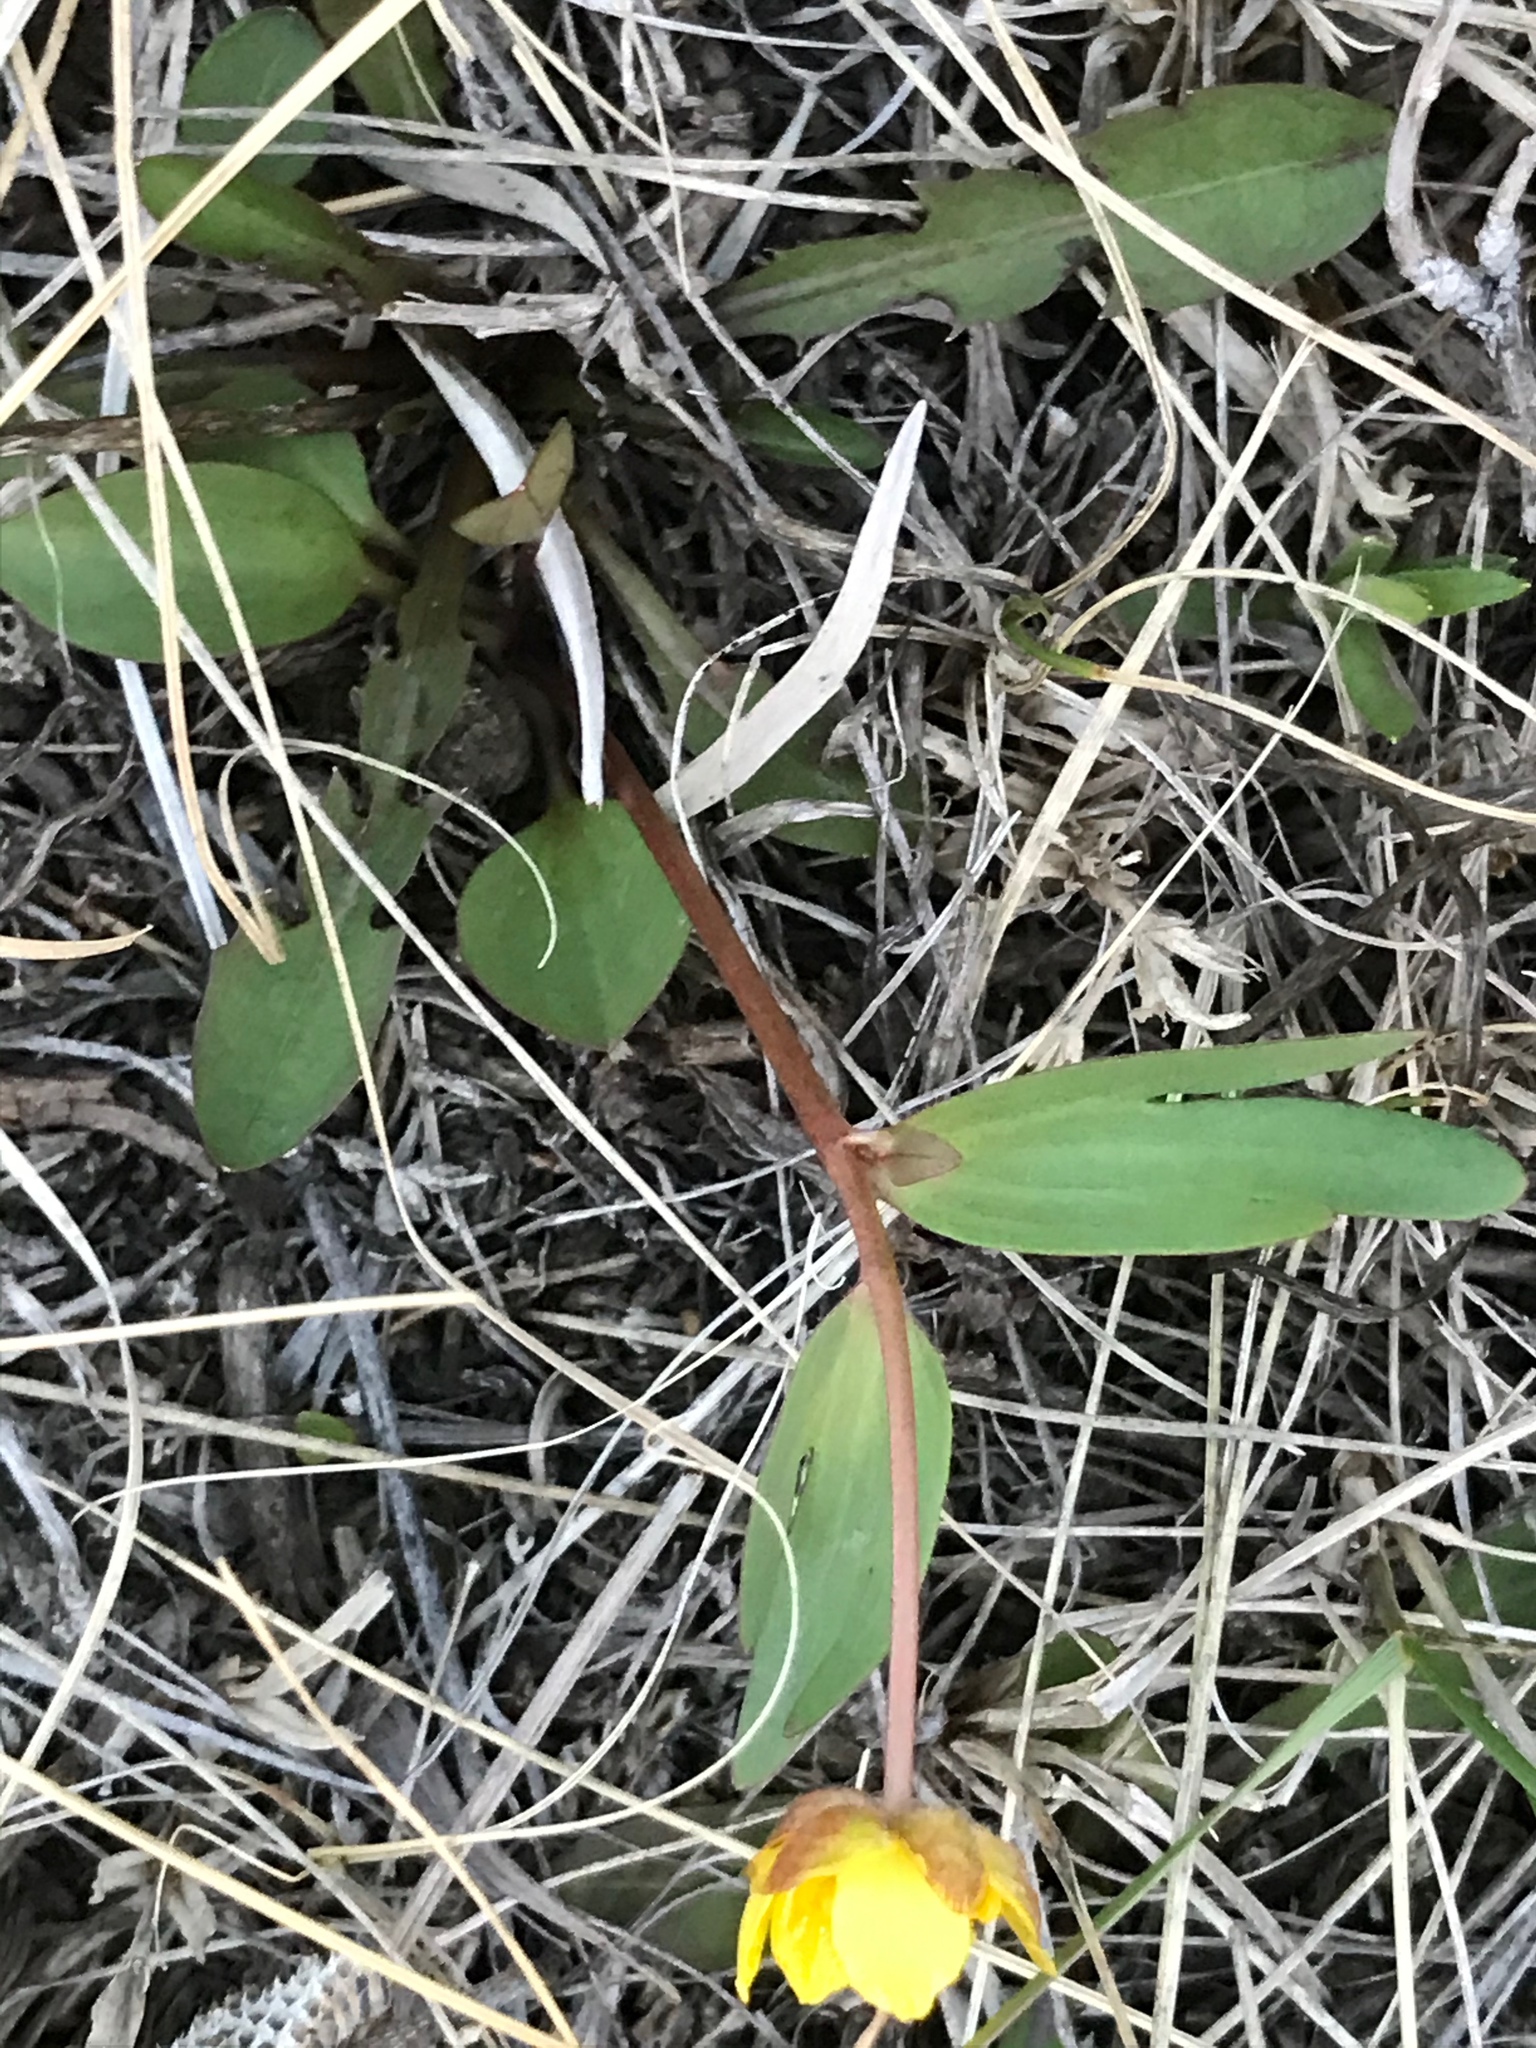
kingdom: Plantae
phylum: Tracheophyta
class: Magnoliopsida
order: Ranunculales
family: Ranunculaceae
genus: Ranunculus
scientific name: Ranunculus glaberrimus
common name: Sagebrush buttercup
